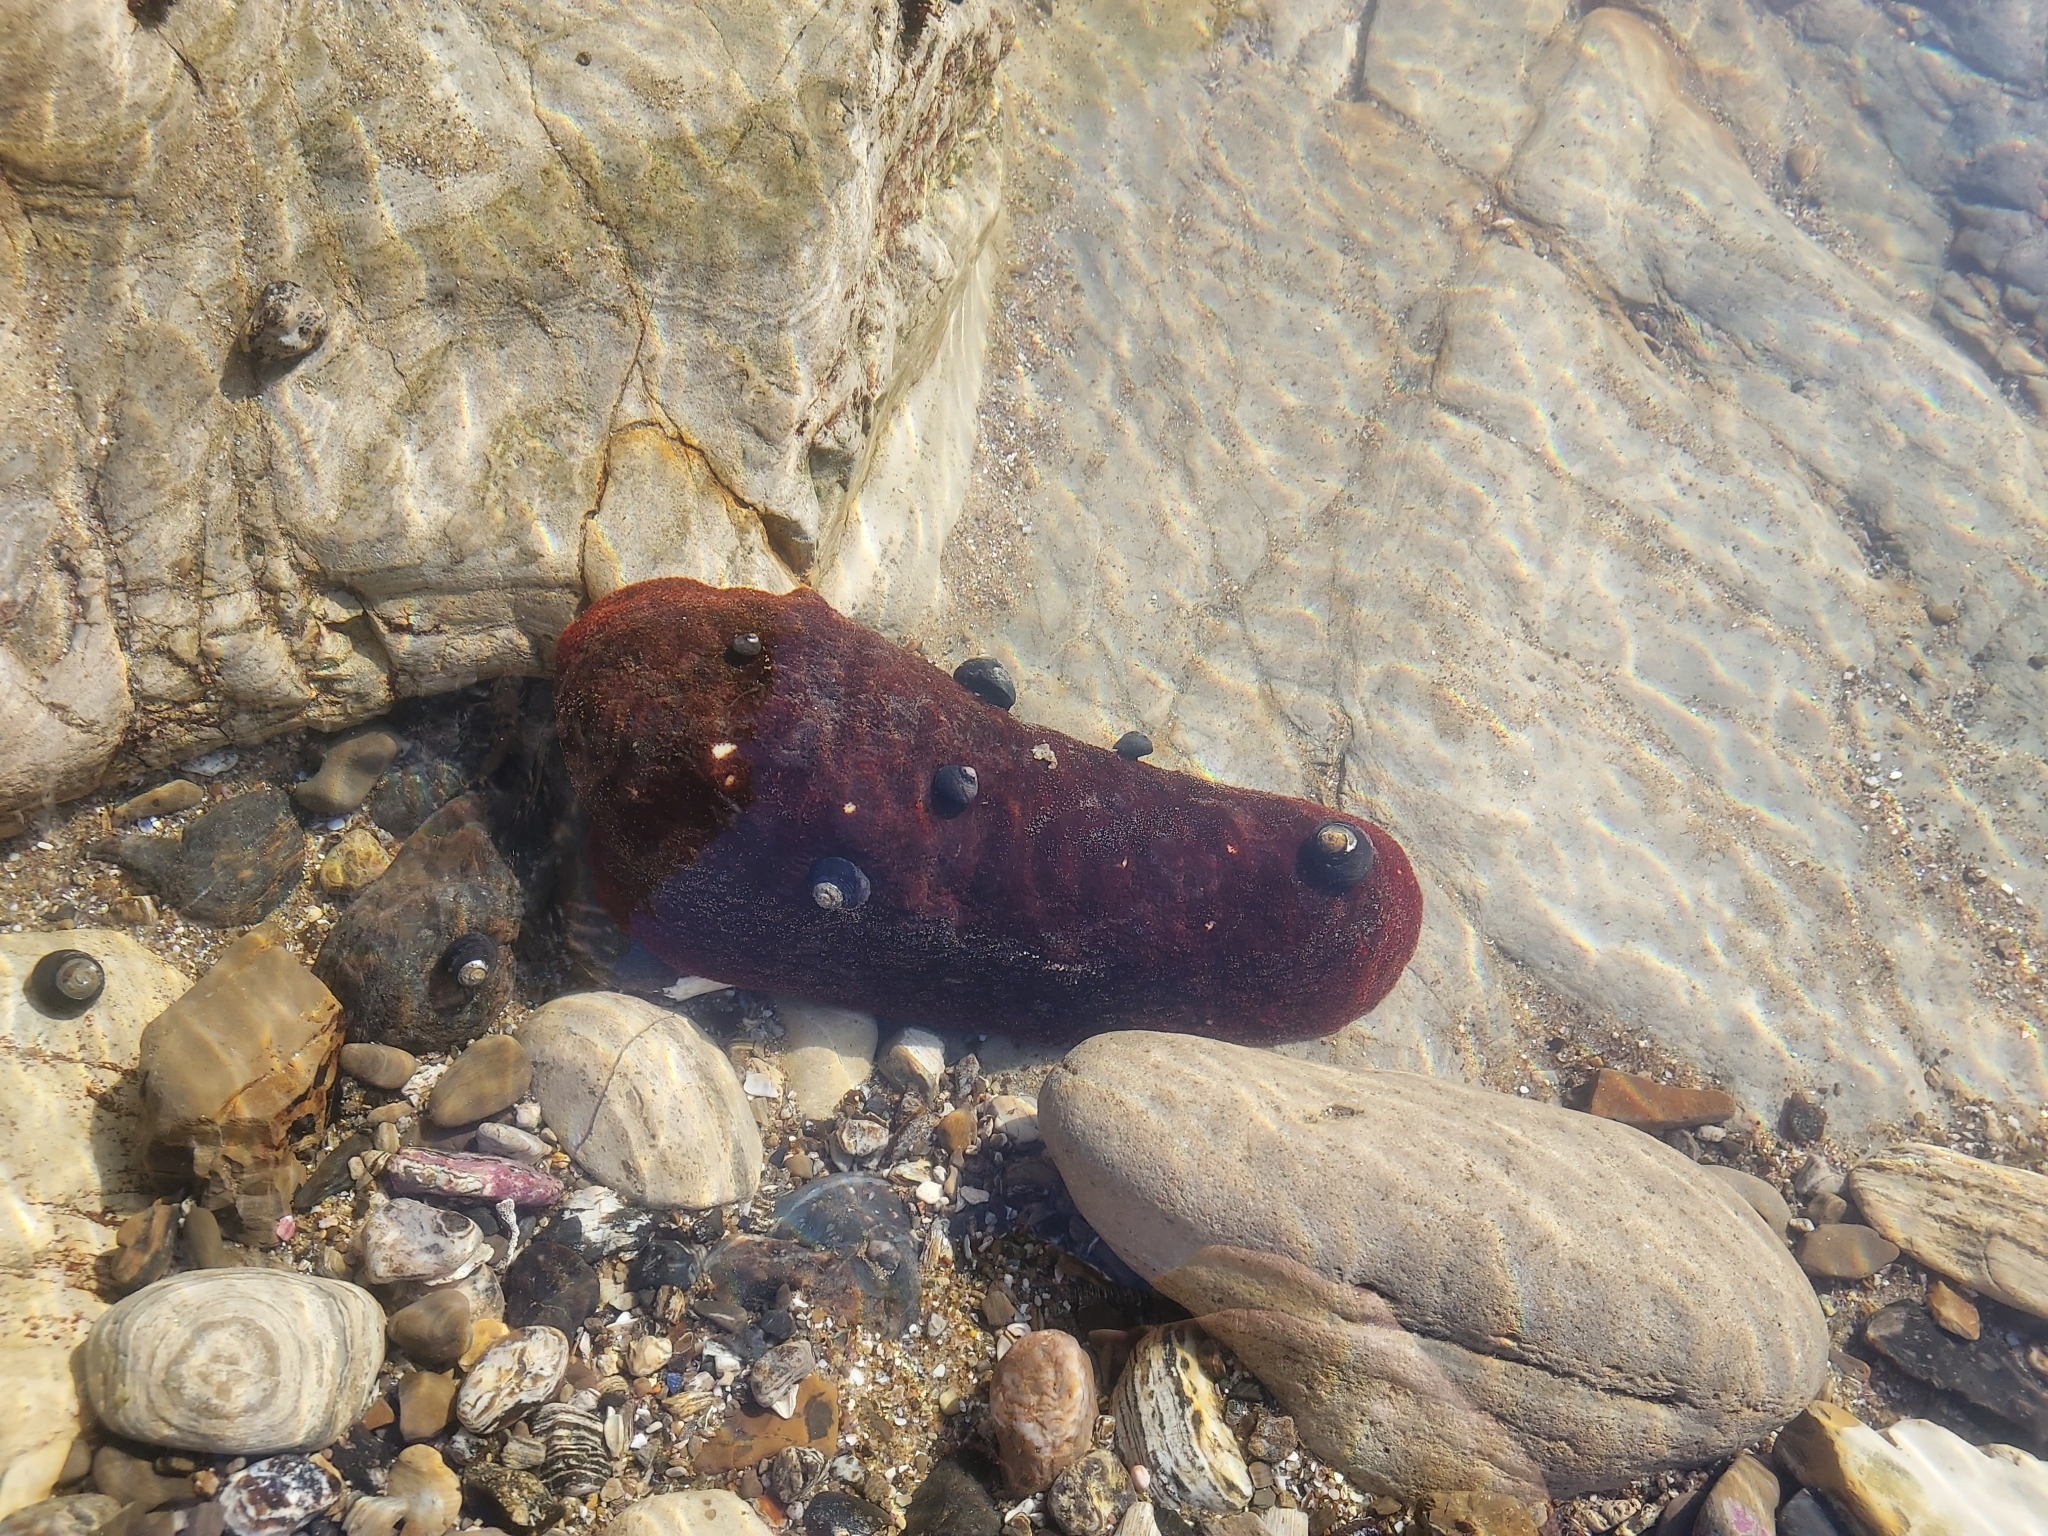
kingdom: Animalia
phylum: Mollusca
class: Polyplacophora
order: Chitonida
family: Acanthochitonidae
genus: Cryptochiton
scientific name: Cryptochiton stelleri
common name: Giant pacific chiton
